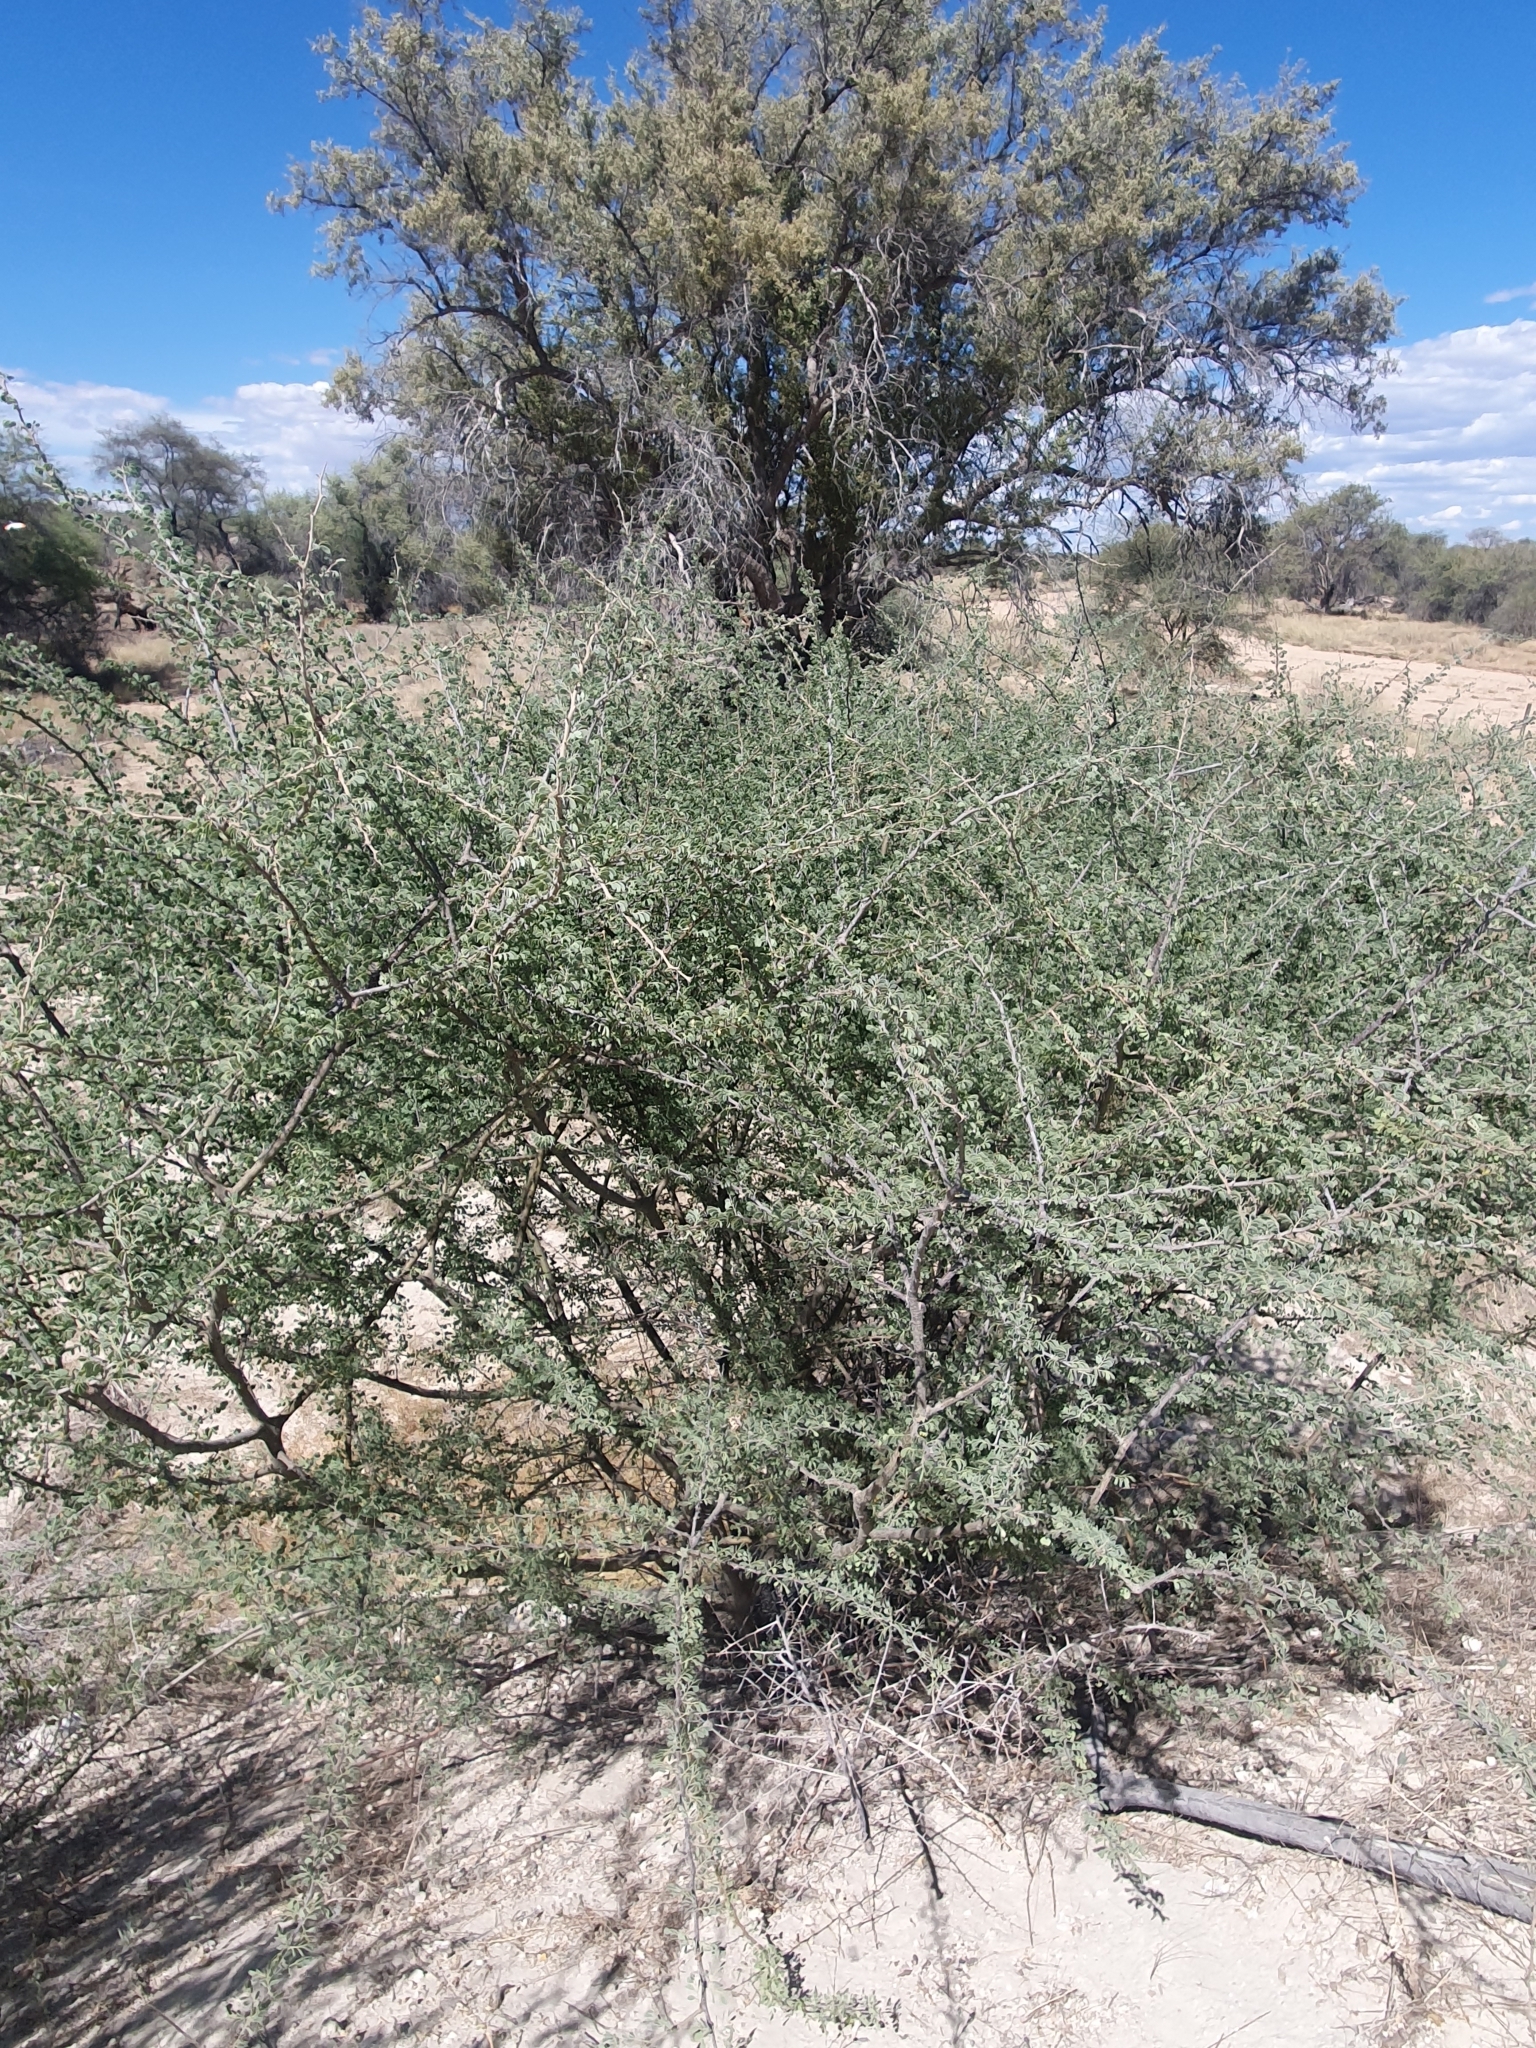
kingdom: Plantae
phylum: Tracheophyta
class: Magnoliopsida
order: Fabales
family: Fabaceae
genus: Senegalia
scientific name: Senegalia mellifera
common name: Hookthorn
